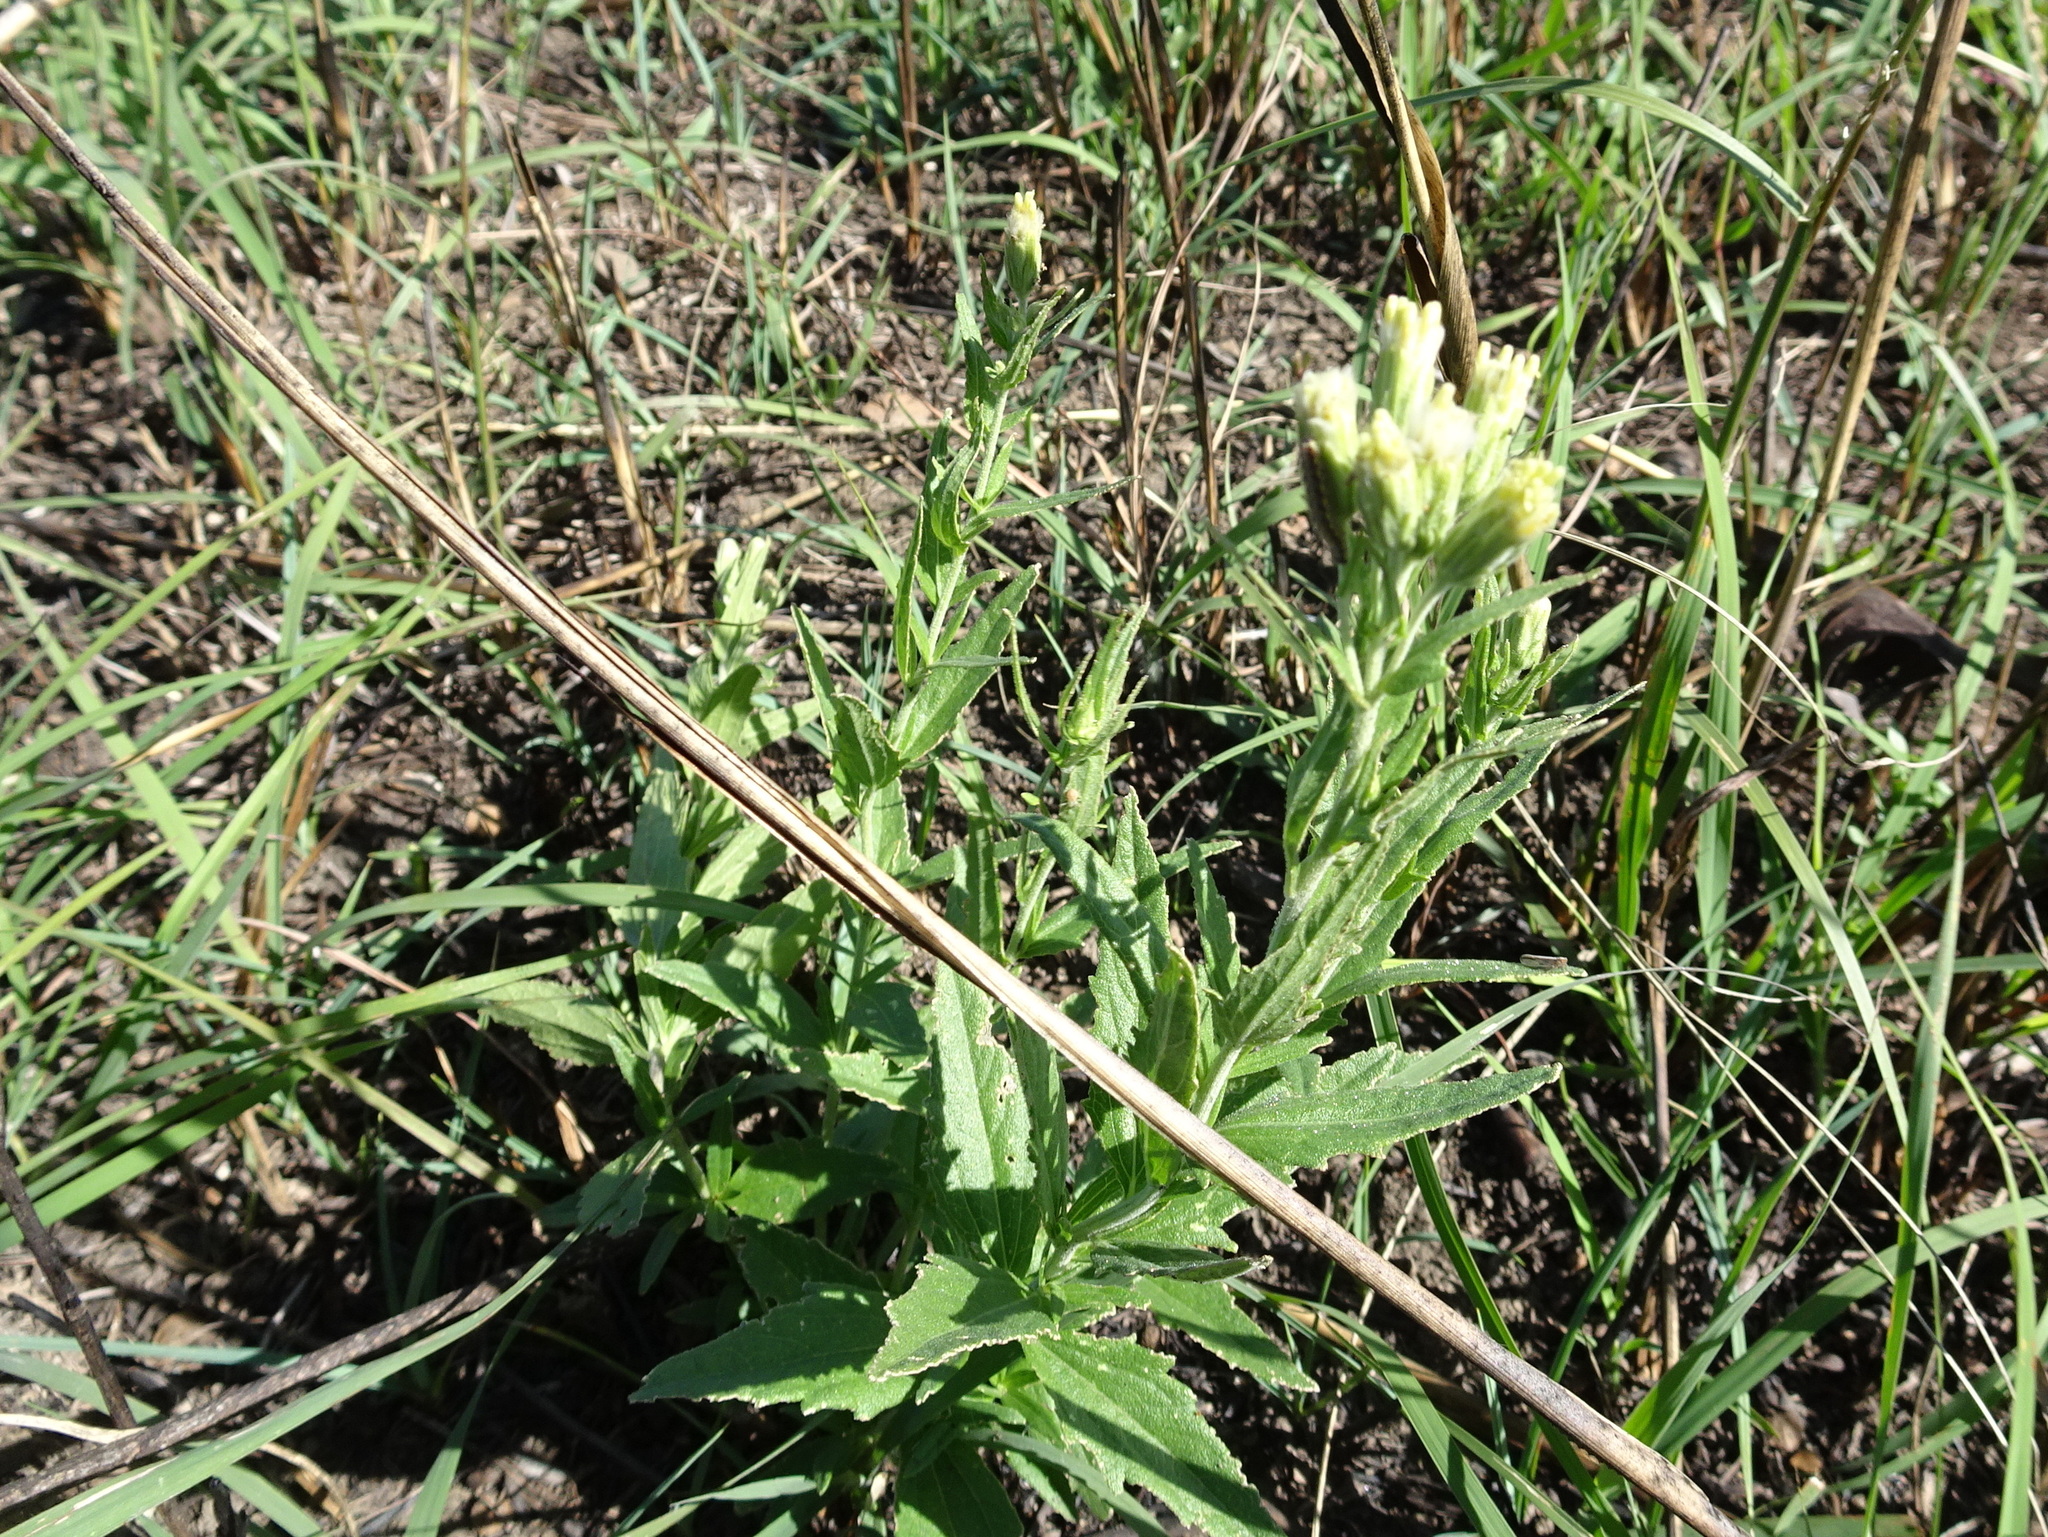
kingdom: Plantae
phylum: Tracheophyta
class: Magnoliopsida
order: Asterales
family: Asteraceae
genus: Brickellia
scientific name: Brickellia eupatorioides
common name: False boneset
